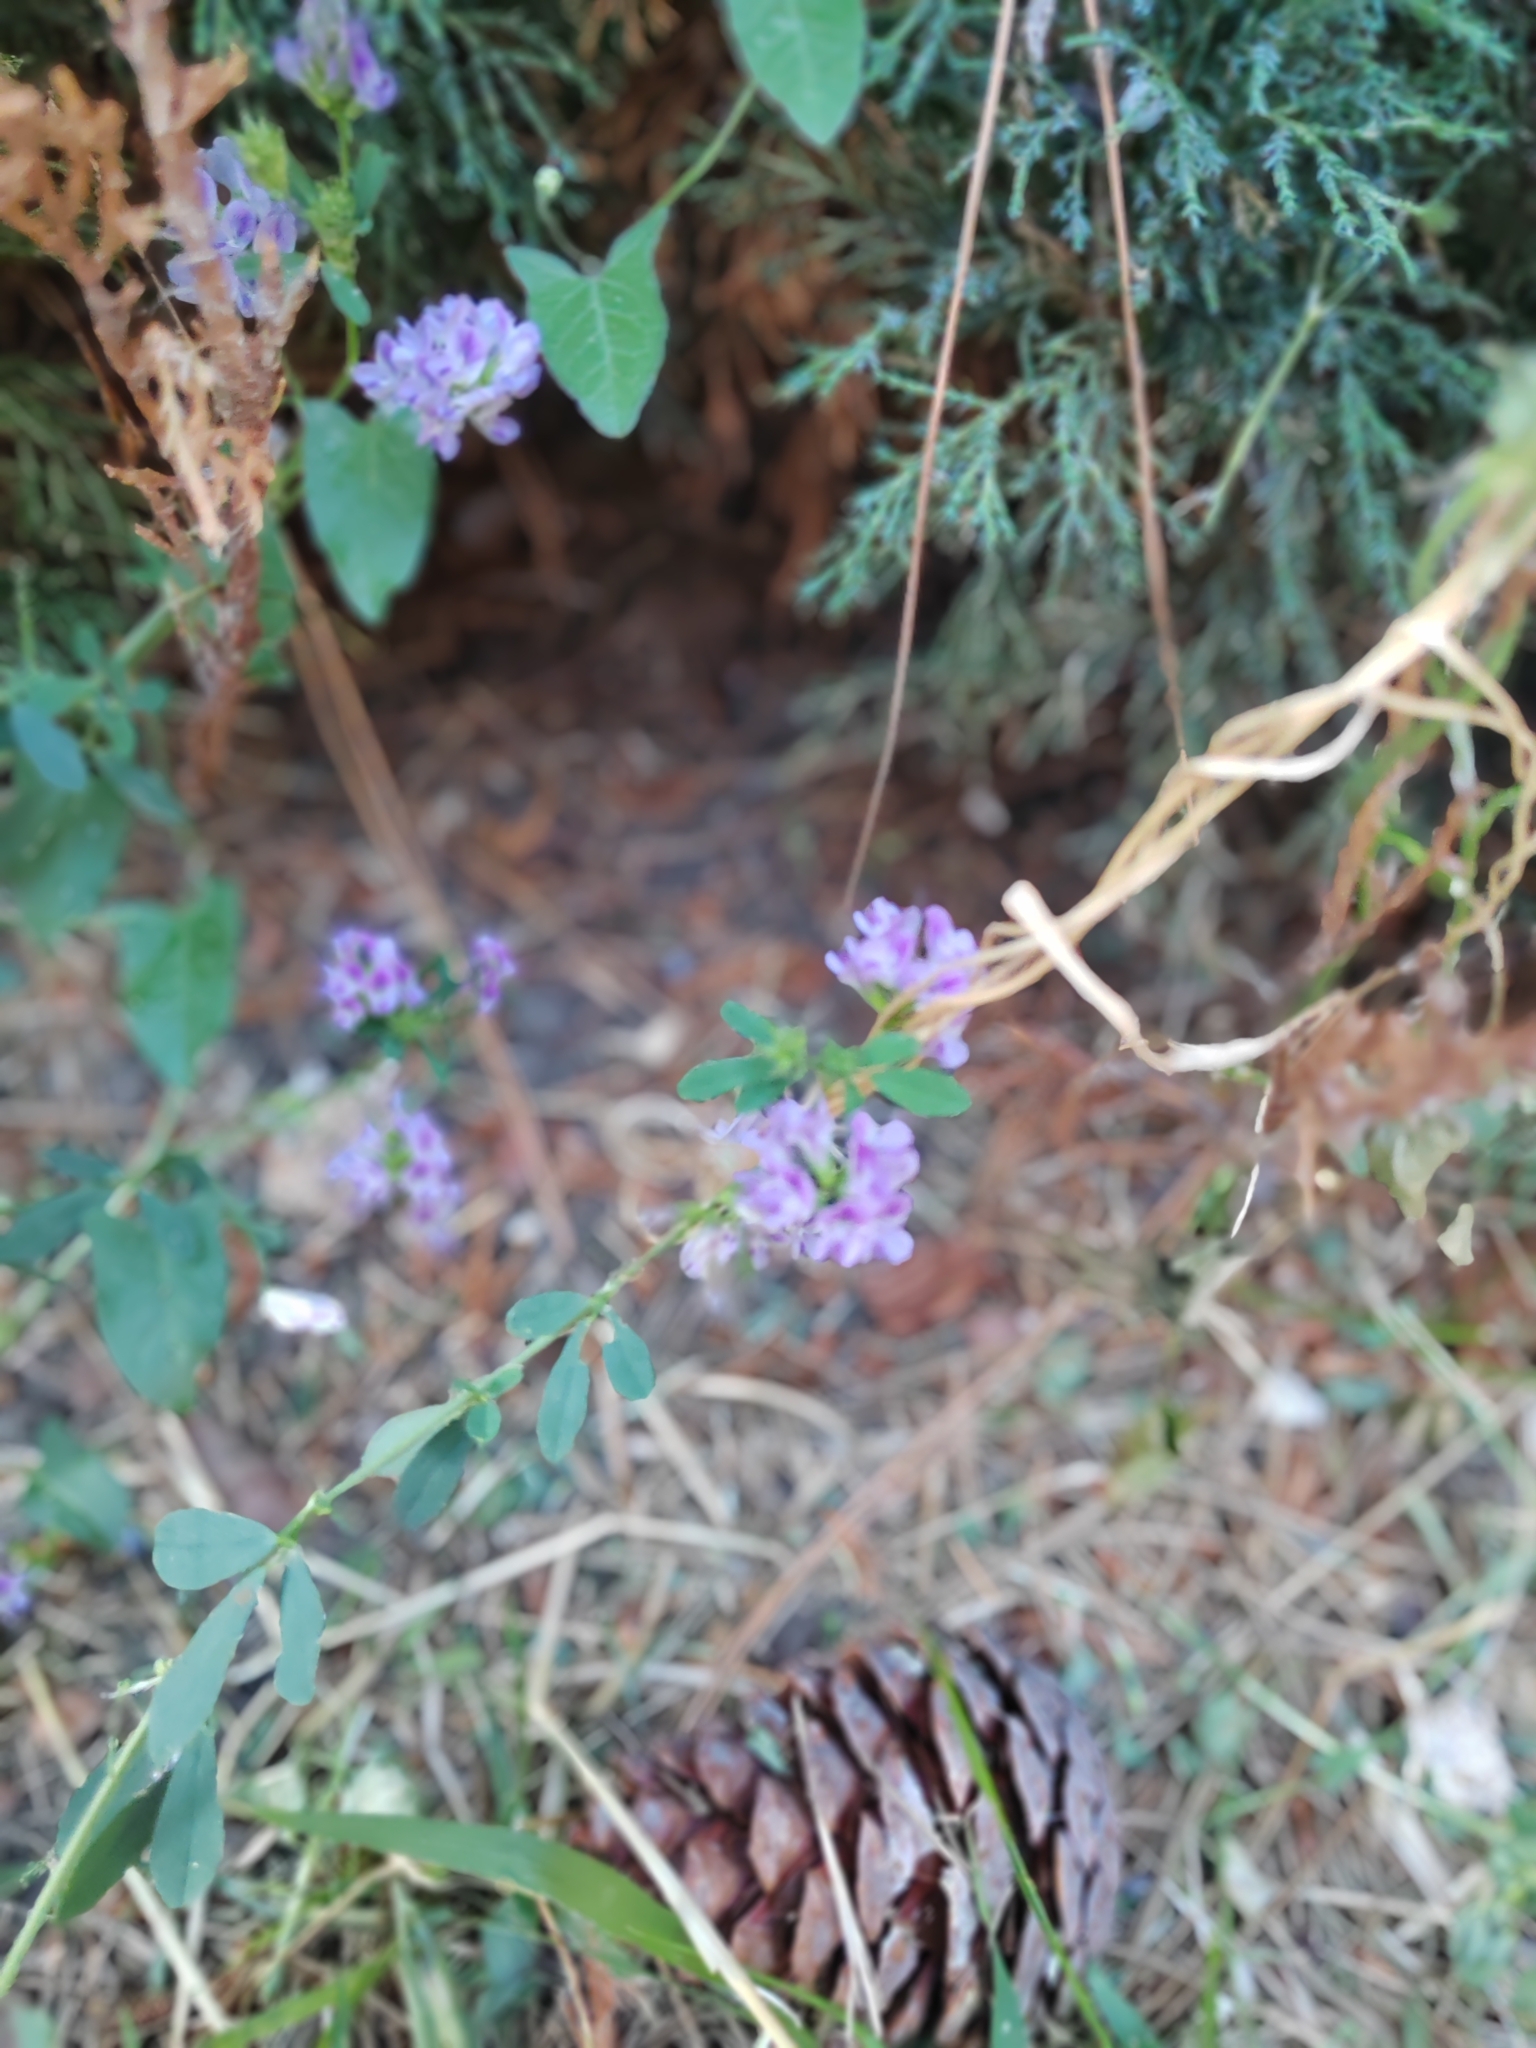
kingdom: Plantae
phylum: Tracheophyta
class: Magnoliopsida
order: Fabales
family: Fabaceae
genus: Medicago
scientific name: Medicago varia
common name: Sand lucerne
